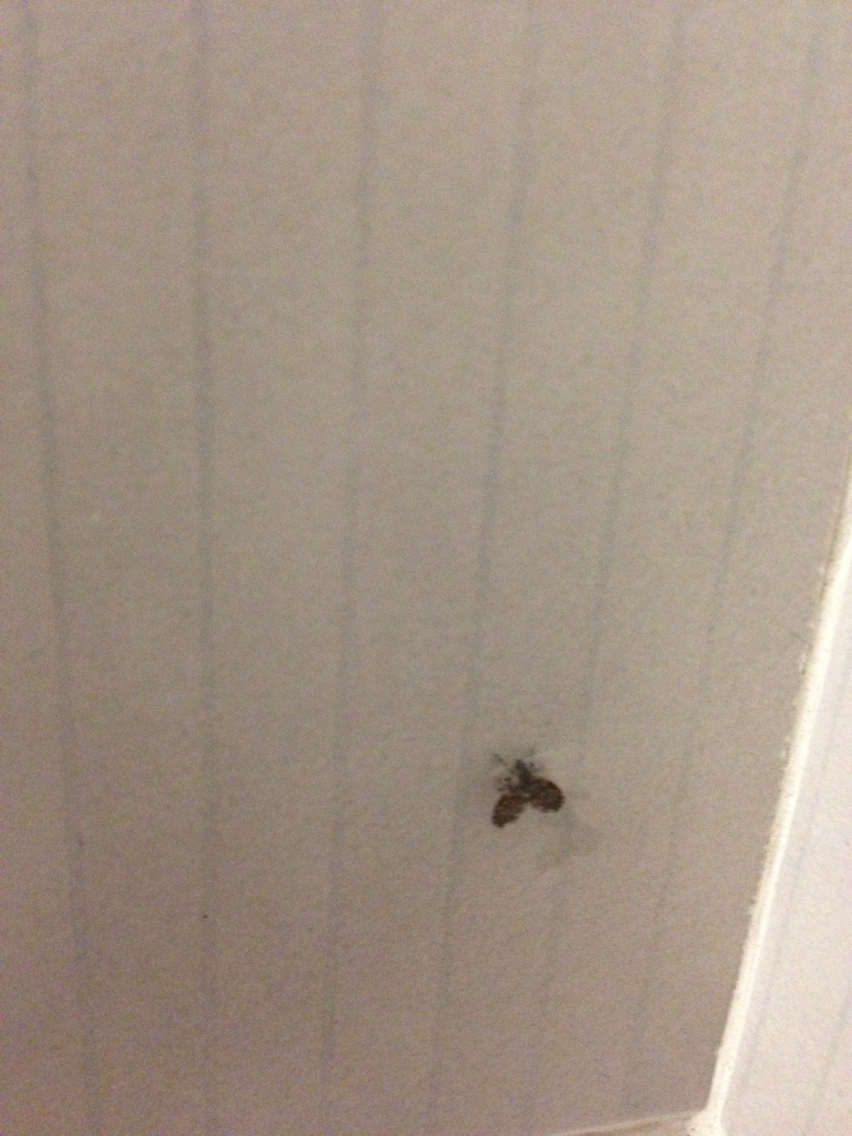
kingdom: Animalia
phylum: Arthropoda
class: Insecta
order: Diptera
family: Psychodidae
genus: Clogmia
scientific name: Clogmia albipunctatus
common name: White-spotted moth fly
